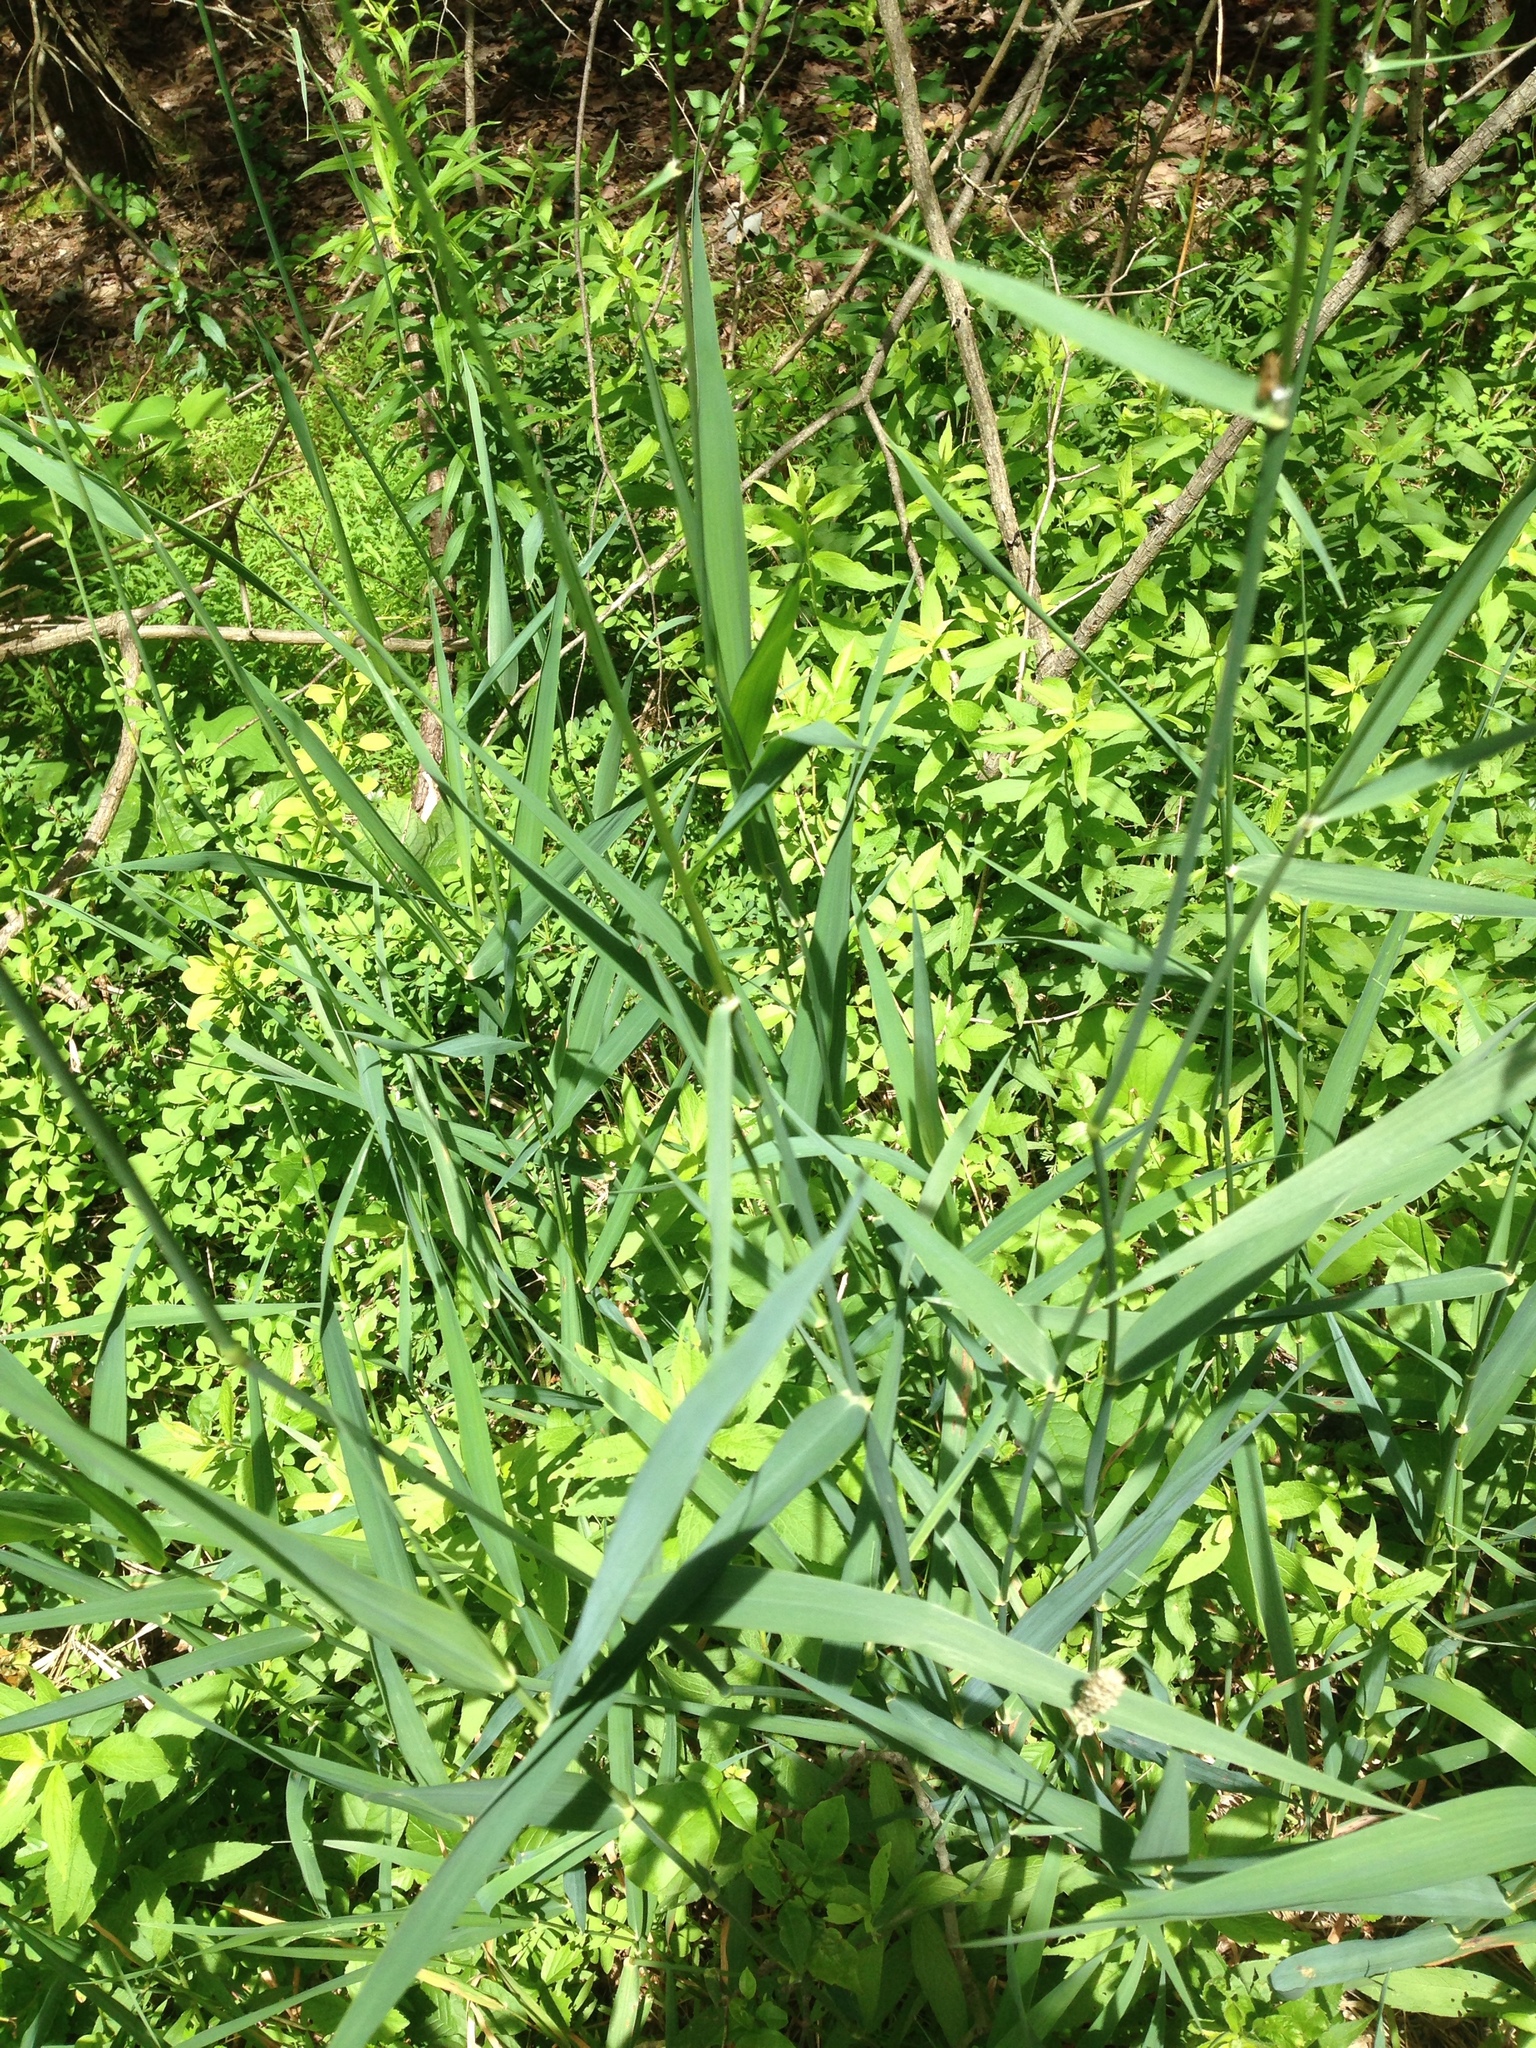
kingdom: Plantae
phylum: Tracheophyta
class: Liliopsida
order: Poales
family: Poaceae
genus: Phalaris
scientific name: Phalaris arundinacea
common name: Reed canary-grass
